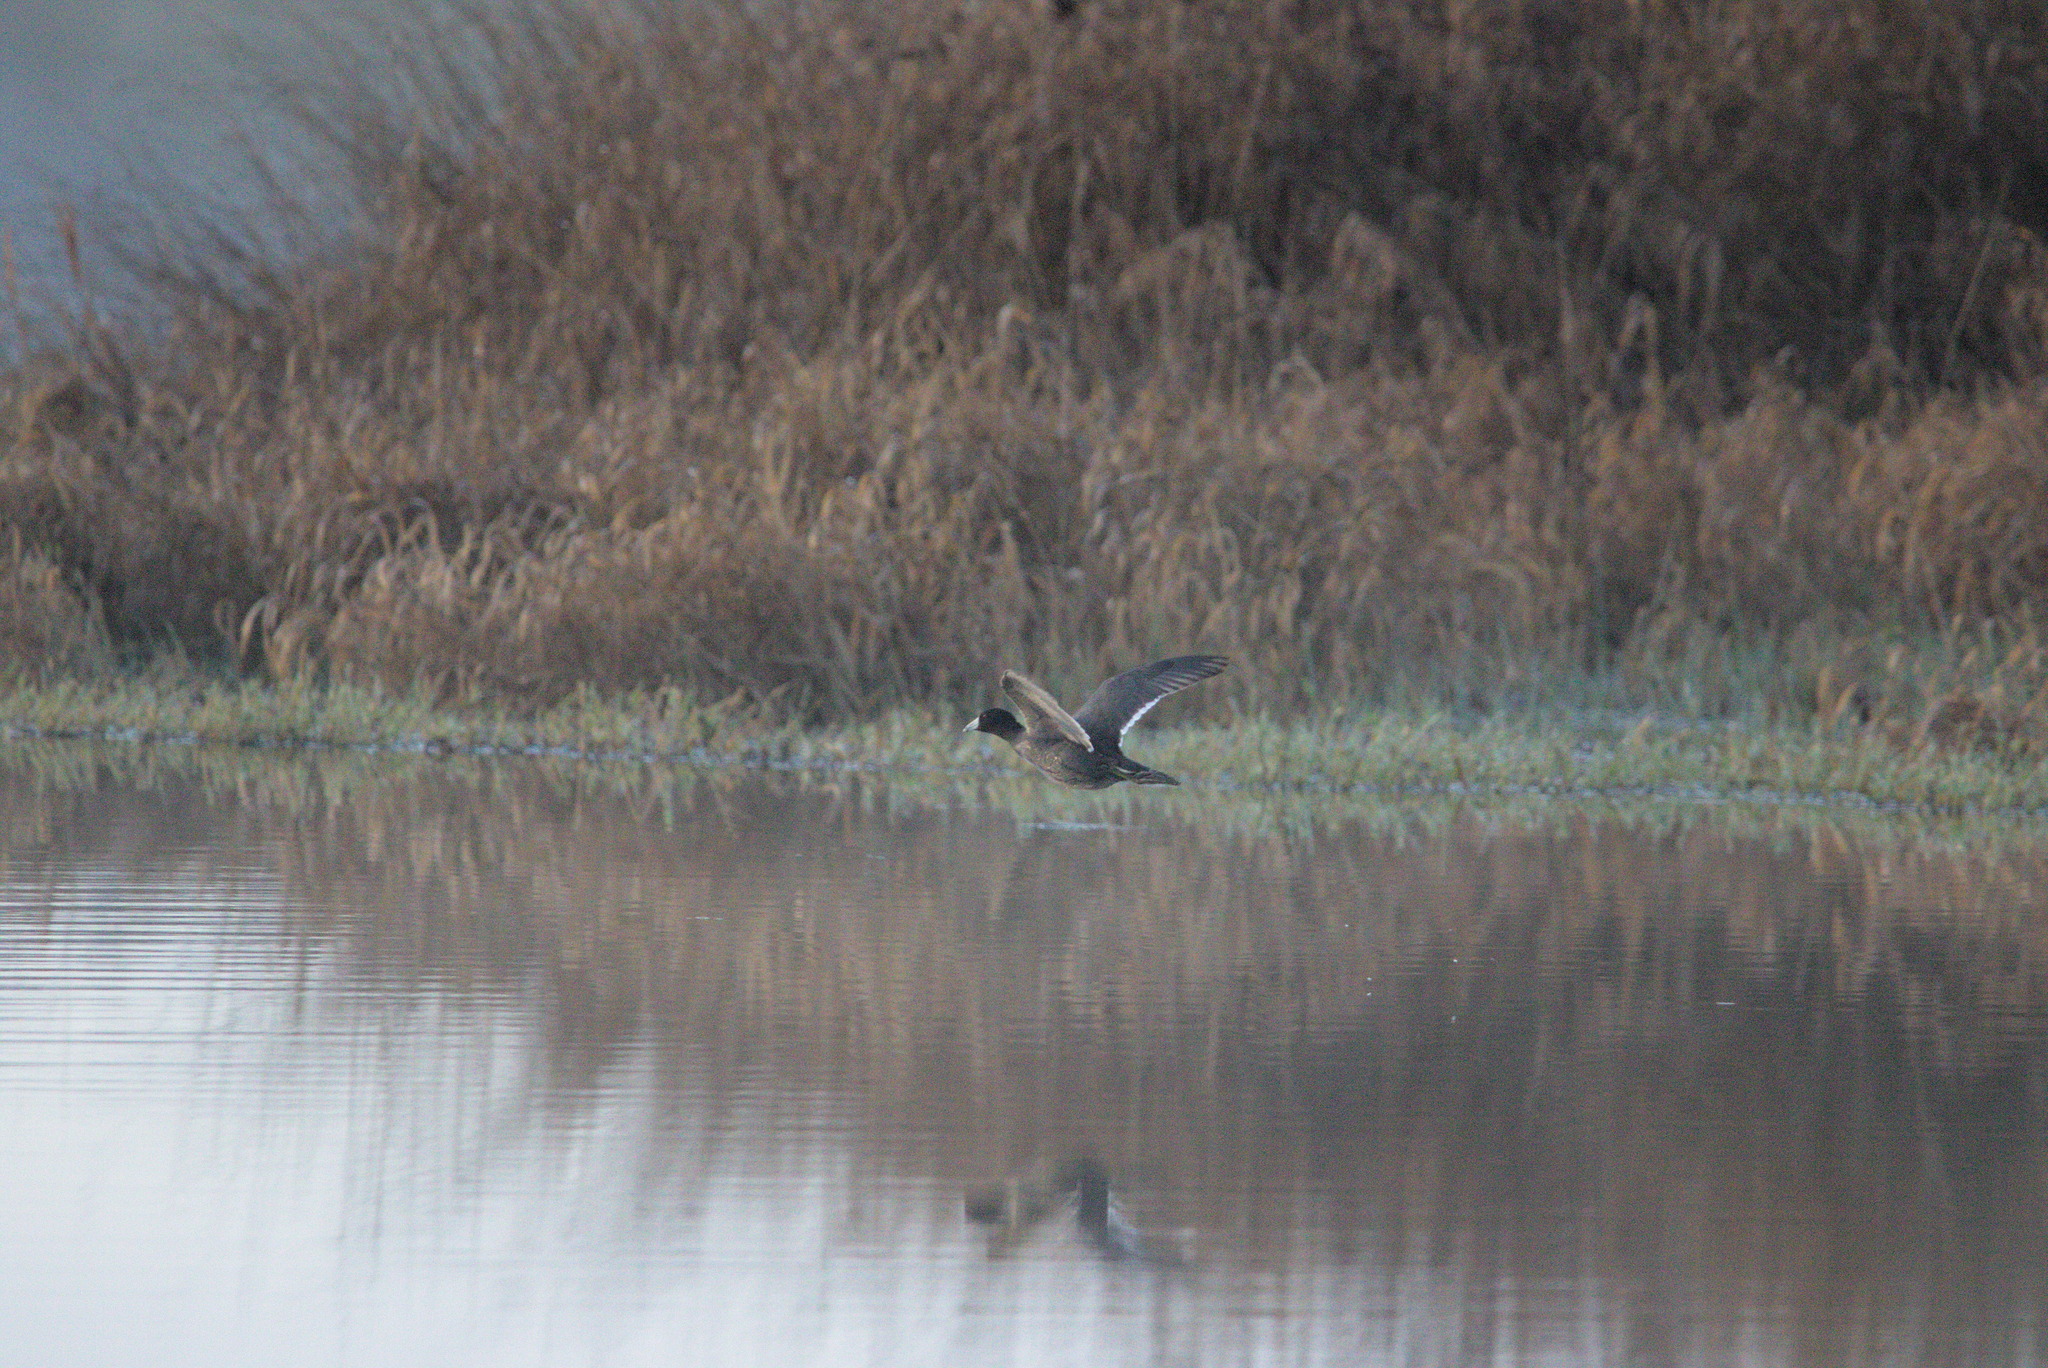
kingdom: Animalia
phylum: Chordata
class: Aves
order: Gruiformes
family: Rallidae
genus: Fulica
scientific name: Fulica americana
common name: American coot
